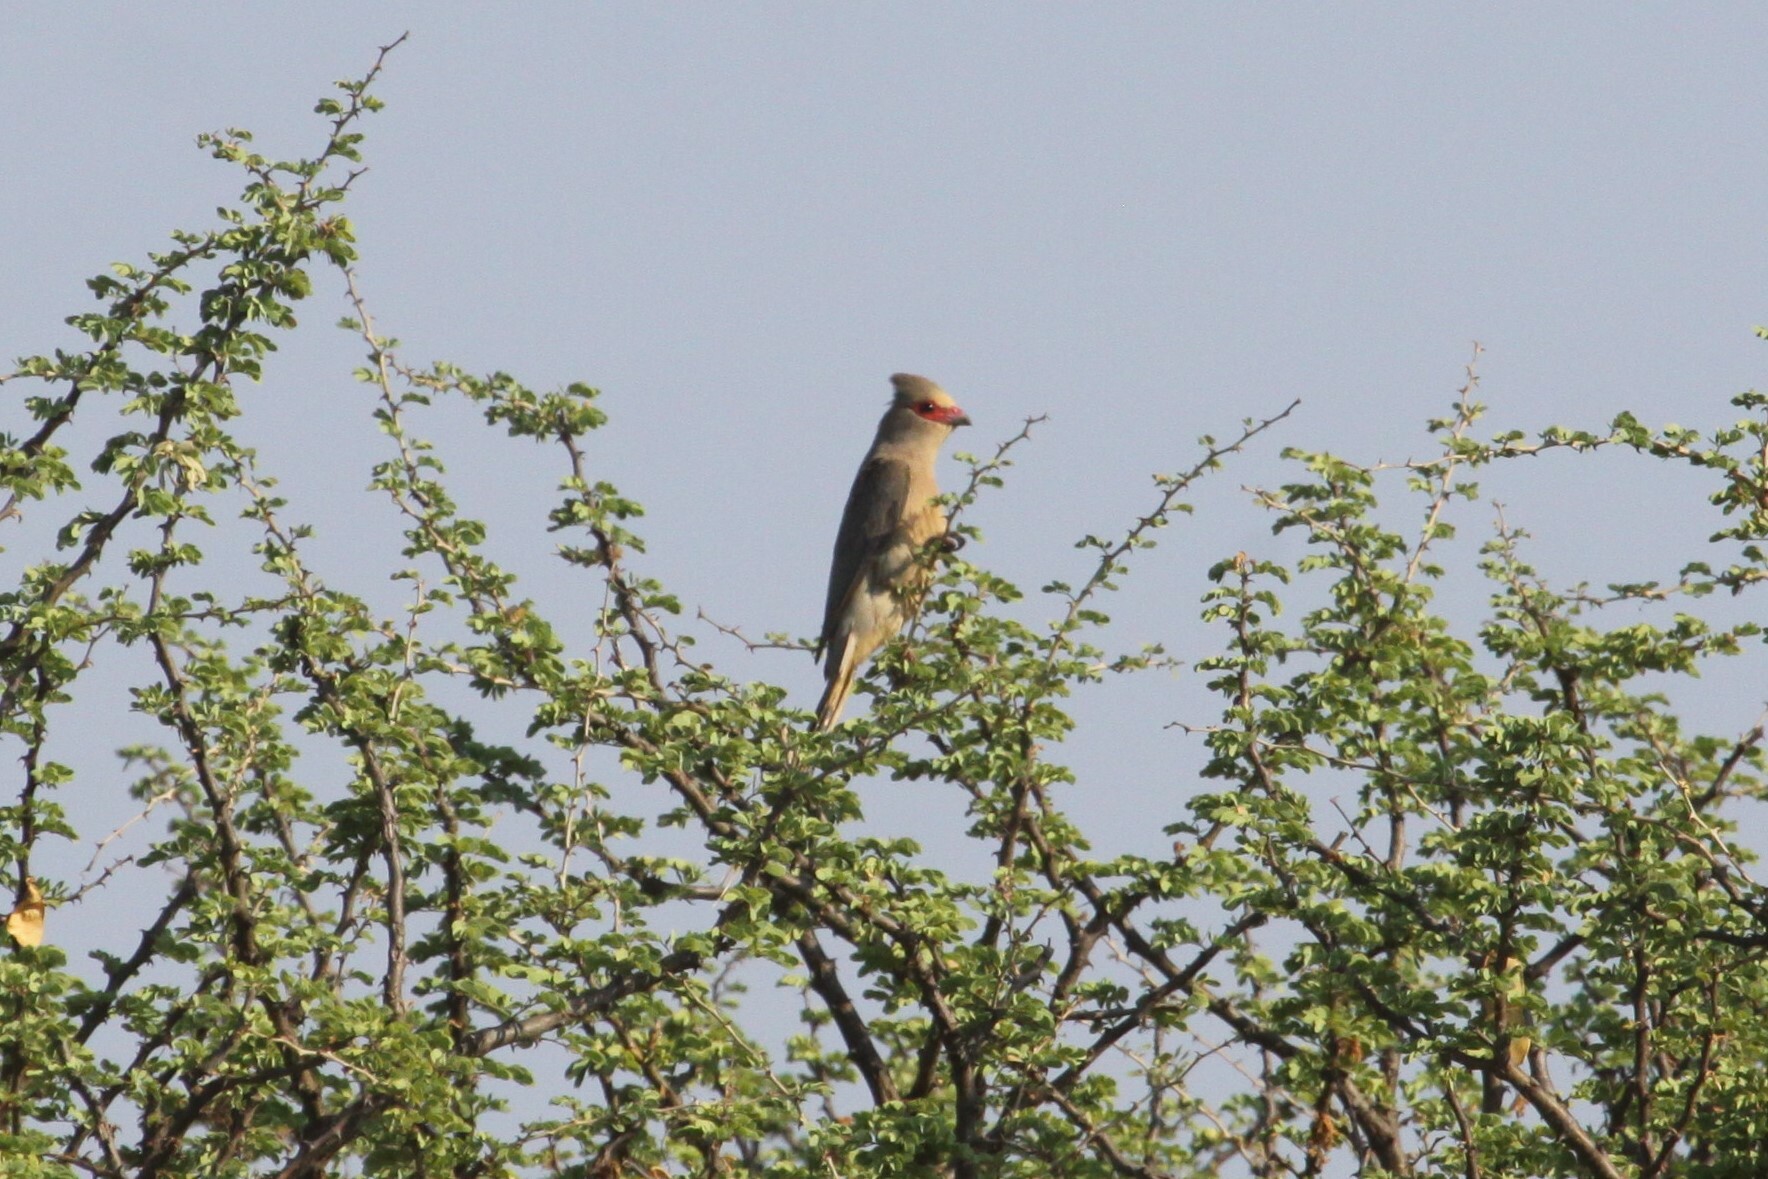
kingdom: Animalia
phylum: Chordata
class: Aves
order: Coliiformes
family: Coliidae
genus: Urocolius
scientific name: Urocolius indicus
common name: Red-faced mousebird
